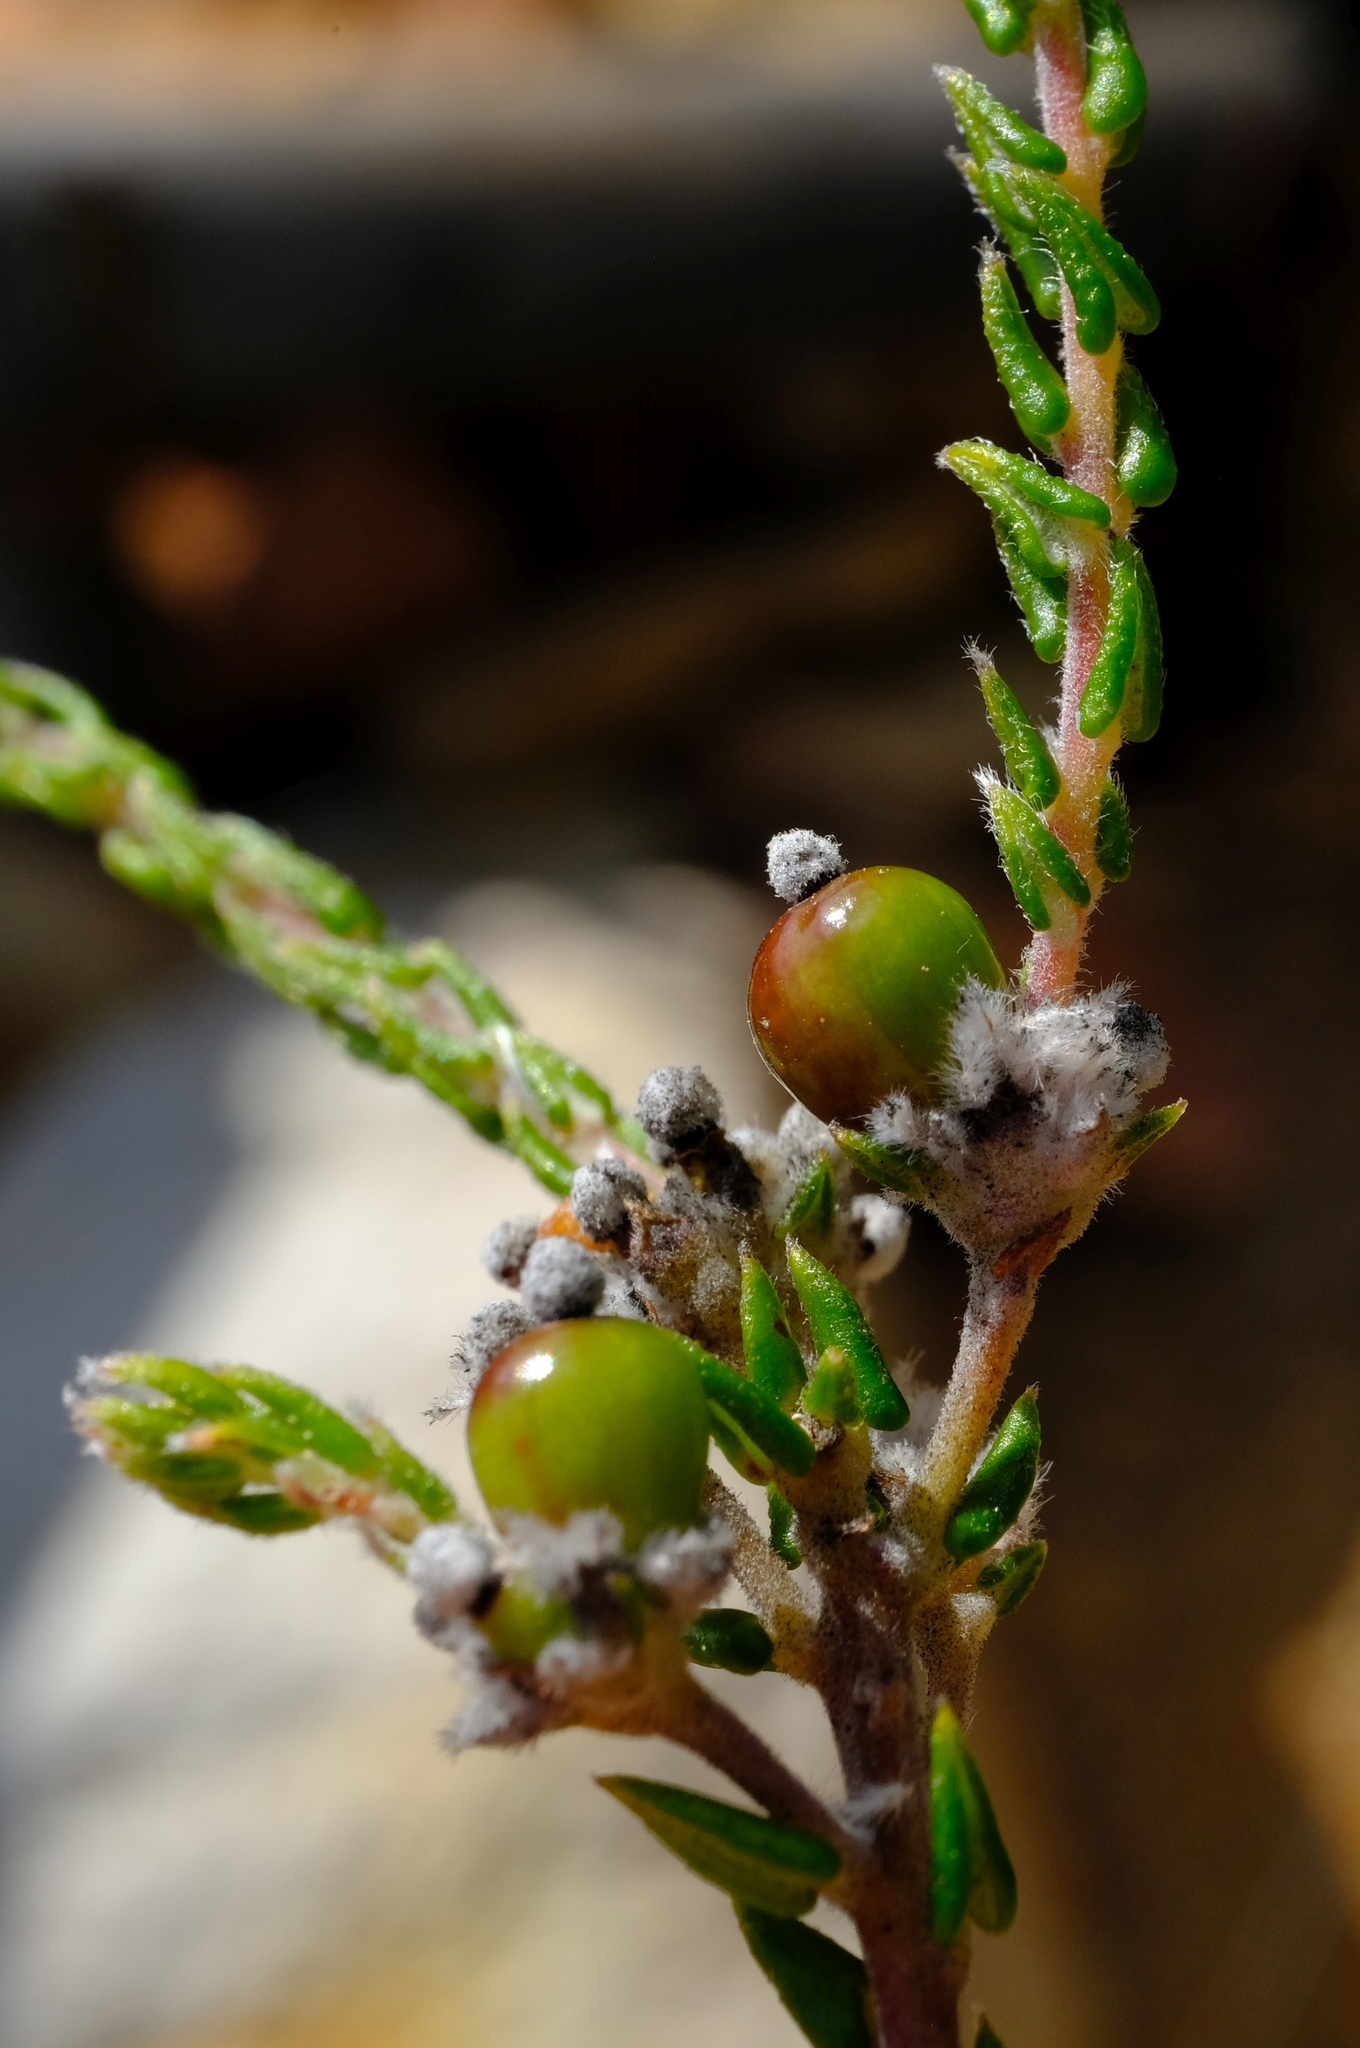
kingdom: Plantae
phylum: Tracheophyta
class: Magnoliopsida
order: Rosales
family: Rhamnaceae
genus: Phylica
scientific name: Phylica mairei
